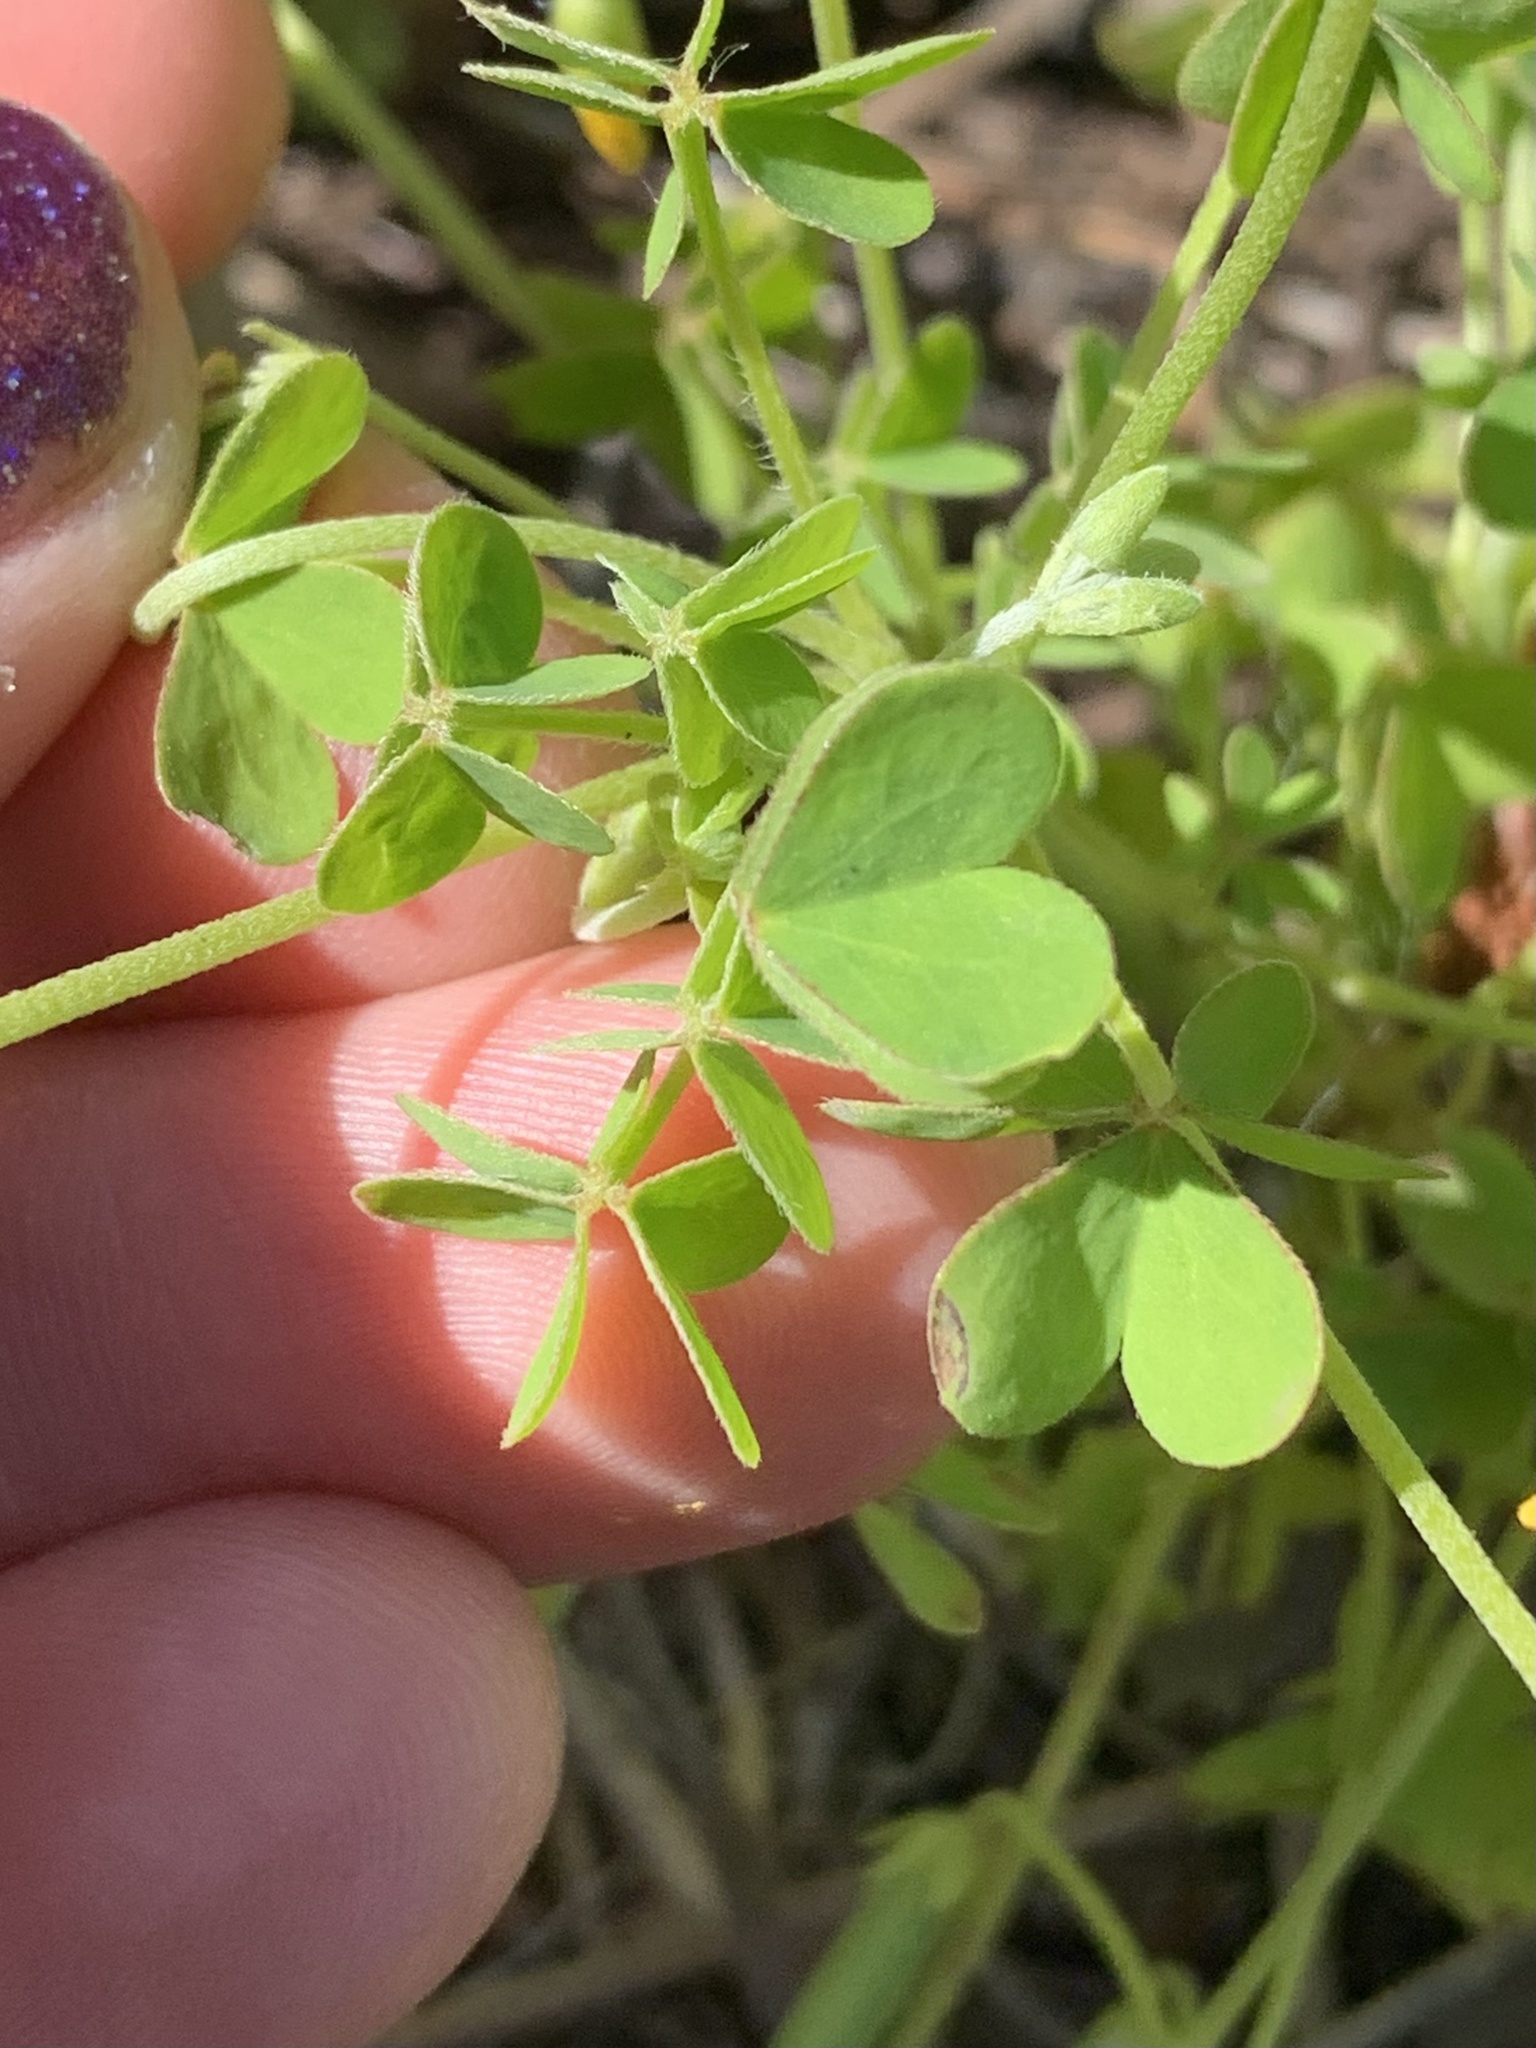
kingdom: Plantae
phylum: Tracheophyta
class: Magnoliopsida
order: Oxalidales
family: Oxalidaceae
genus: Oxalis
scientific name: Oxalis dillenii
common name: Sussex yellow-sorrel
